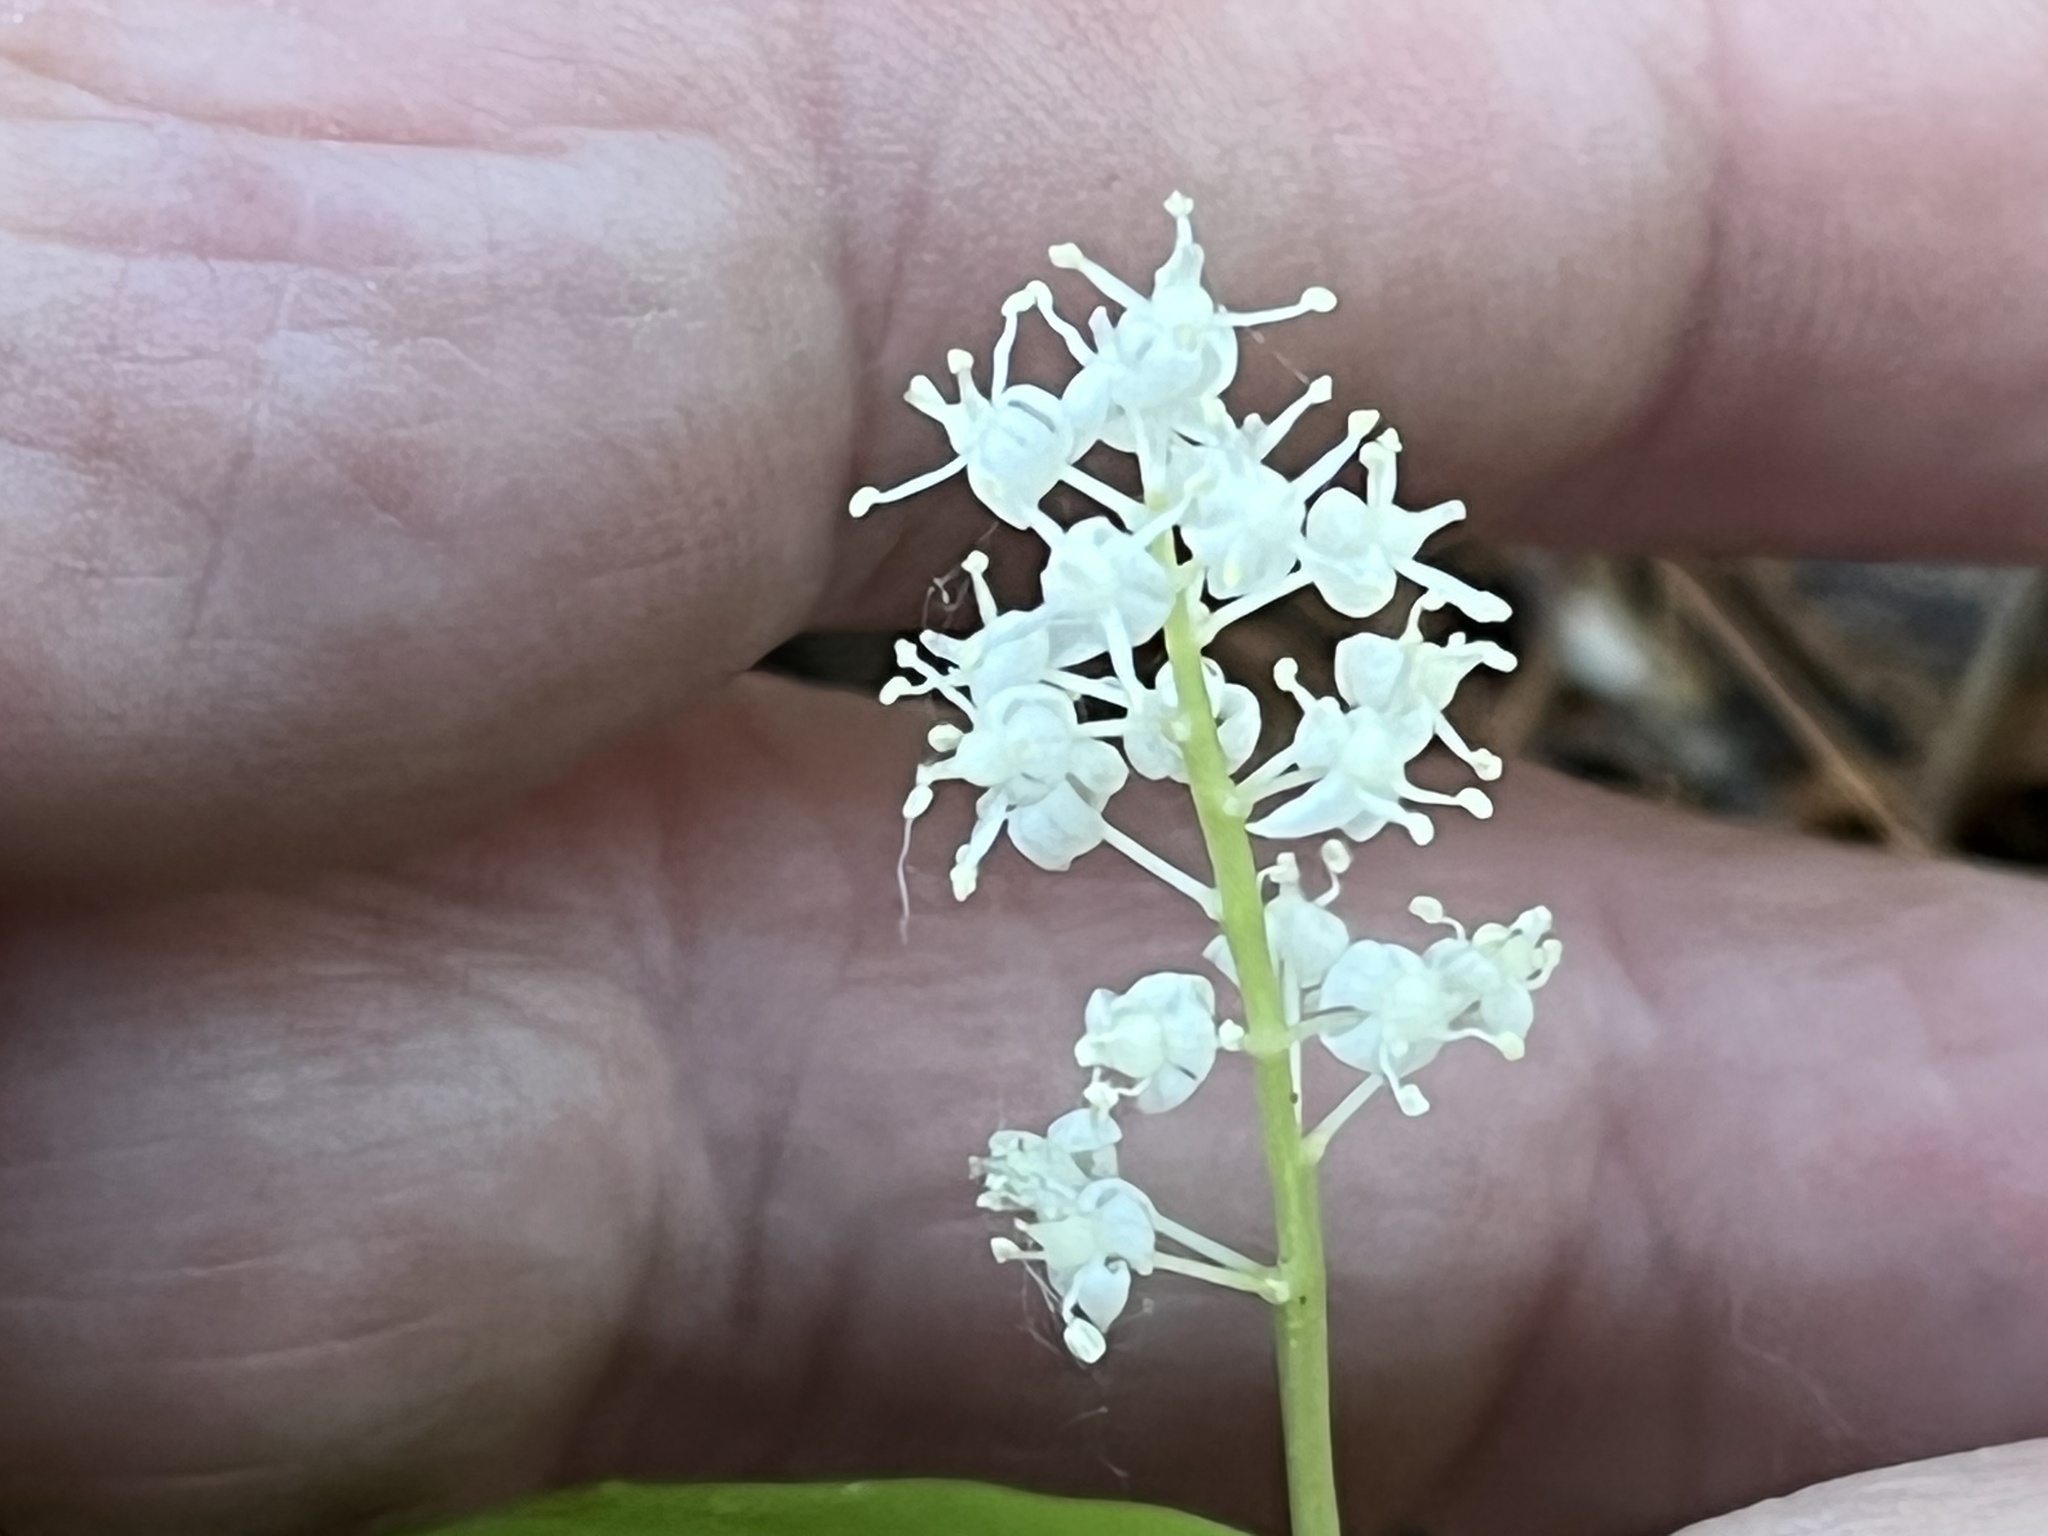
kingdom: Plantae
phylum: Tracheophyta
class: Liliopsida
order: Asparagales
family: Asparagaceae
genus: Maianthemum
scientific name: Maianthemum canadense
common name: False lily-of-the-valley
